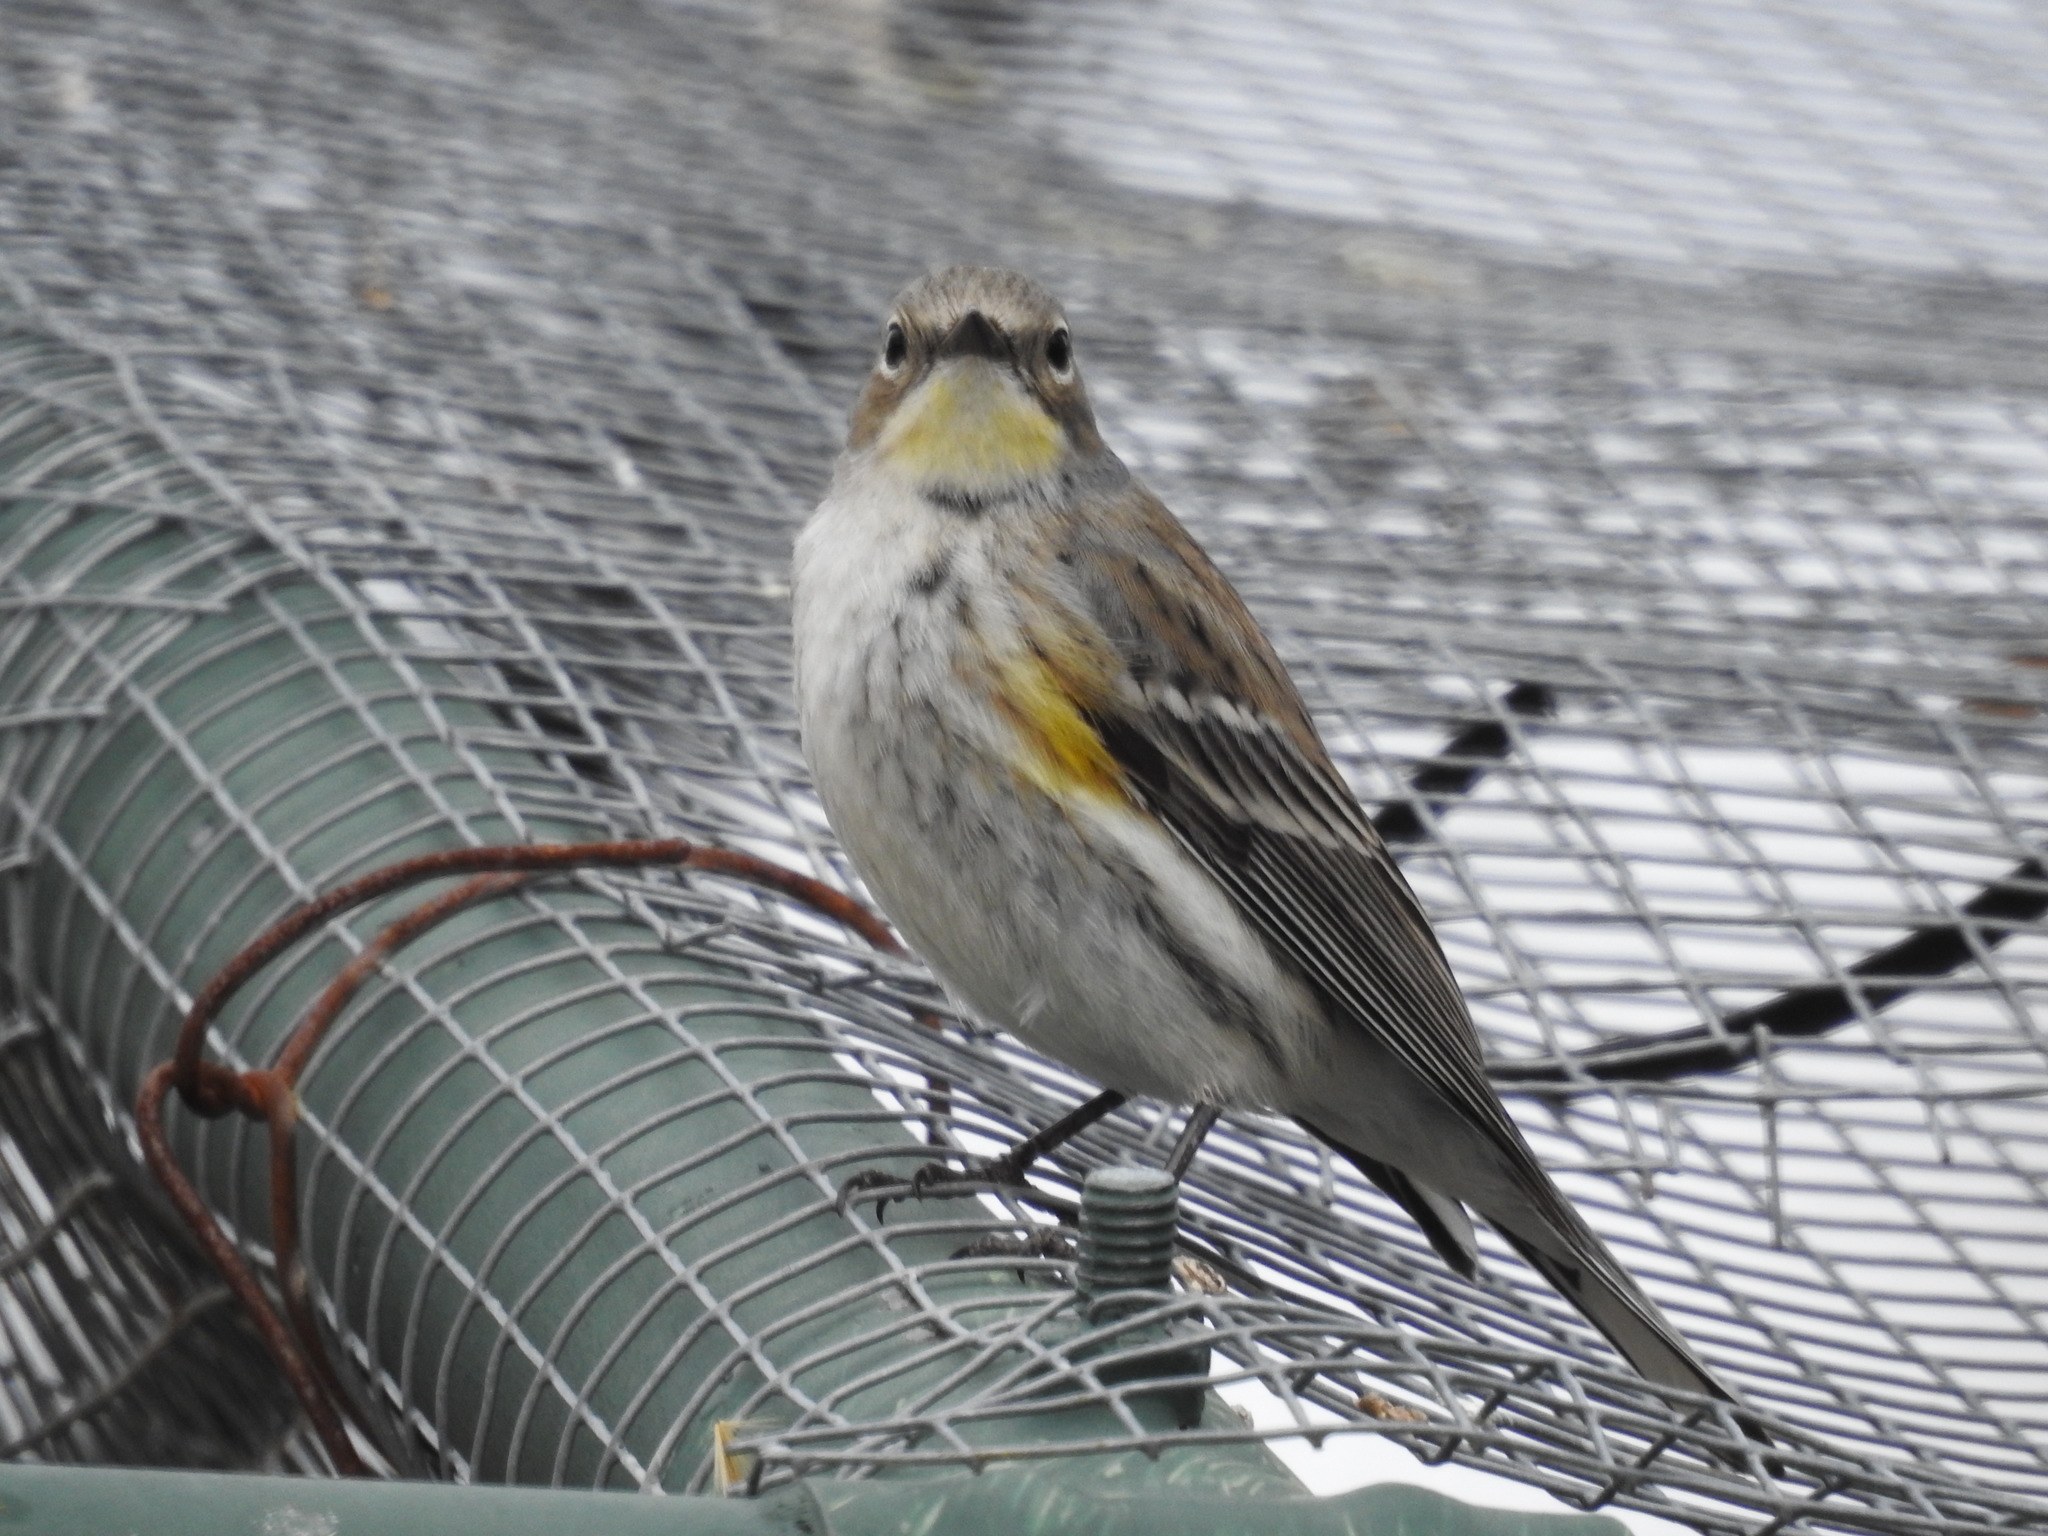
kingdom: Animalia
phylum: Chordata
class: Aves
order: Passeriformes
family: Parulidae
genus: Setophaga
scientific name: Setophaga coronata
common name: Myrtle warbler
